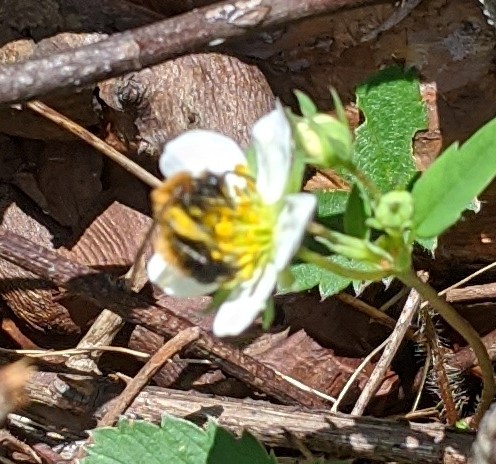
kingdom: Animalia
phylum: Arthropoda
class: Insecta
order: Hymenoptera
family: Andrenidae
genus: Andrena
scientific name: Andrena milwaukeensis
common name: Milwaukee mining bee
